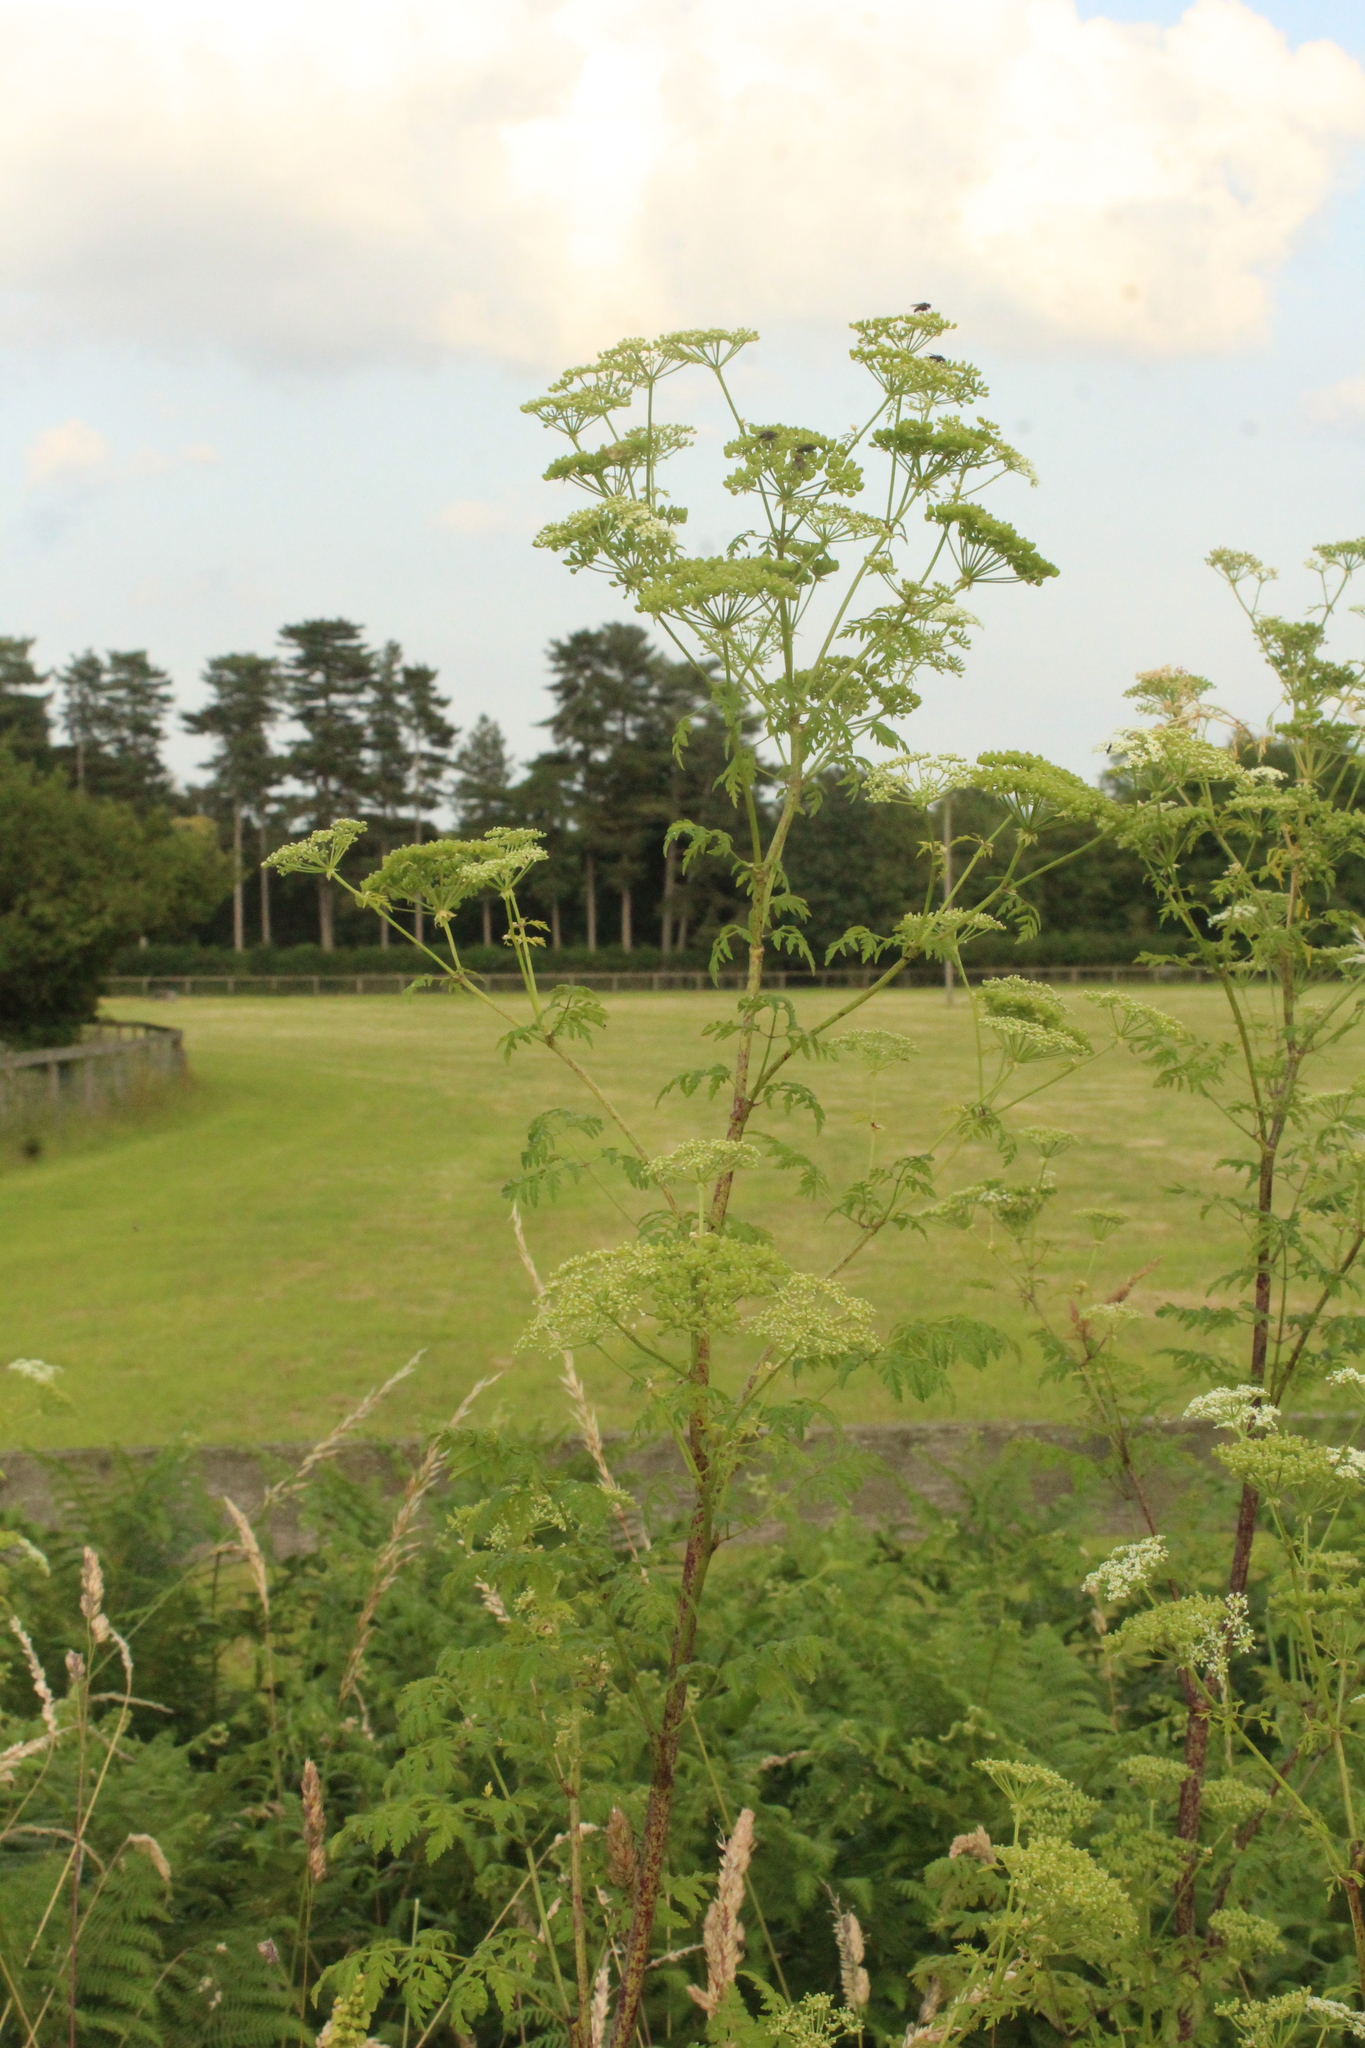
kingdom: Plantae
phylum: Tracheophyta
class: Magnoliopsida
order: Apiales
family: Apiaceae
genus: Conium
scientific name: Conium maculatum
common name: Hemlock
